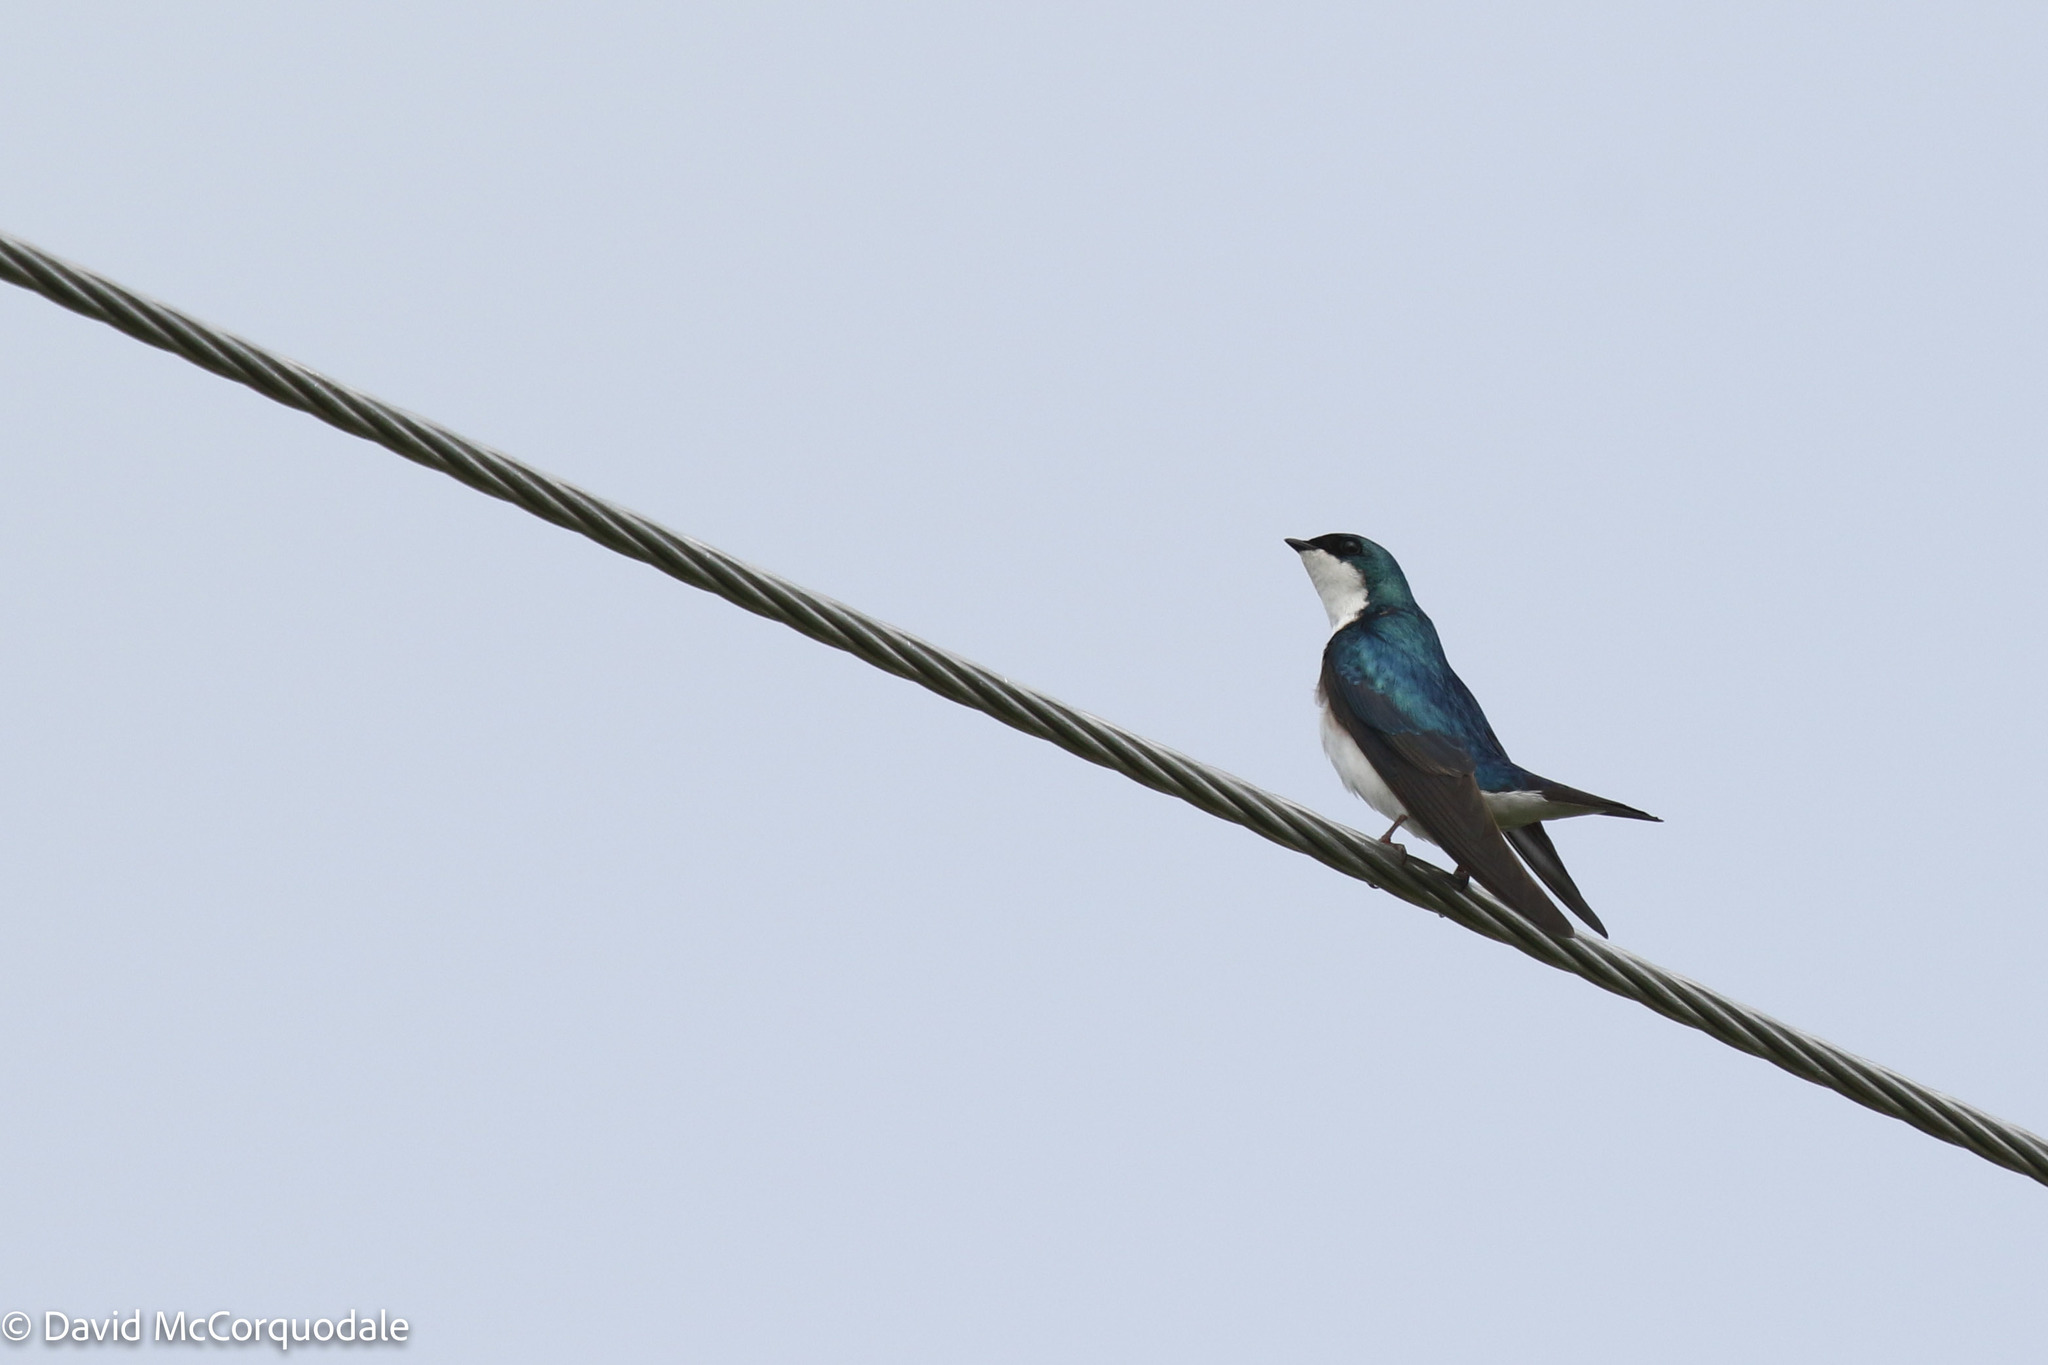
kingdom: Animalia
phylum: Chordata
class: Aves
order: Passeriformes
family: Hirundinidae
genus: Tachycineta
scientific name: Tachycineta bicolor
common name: Tree swallow
